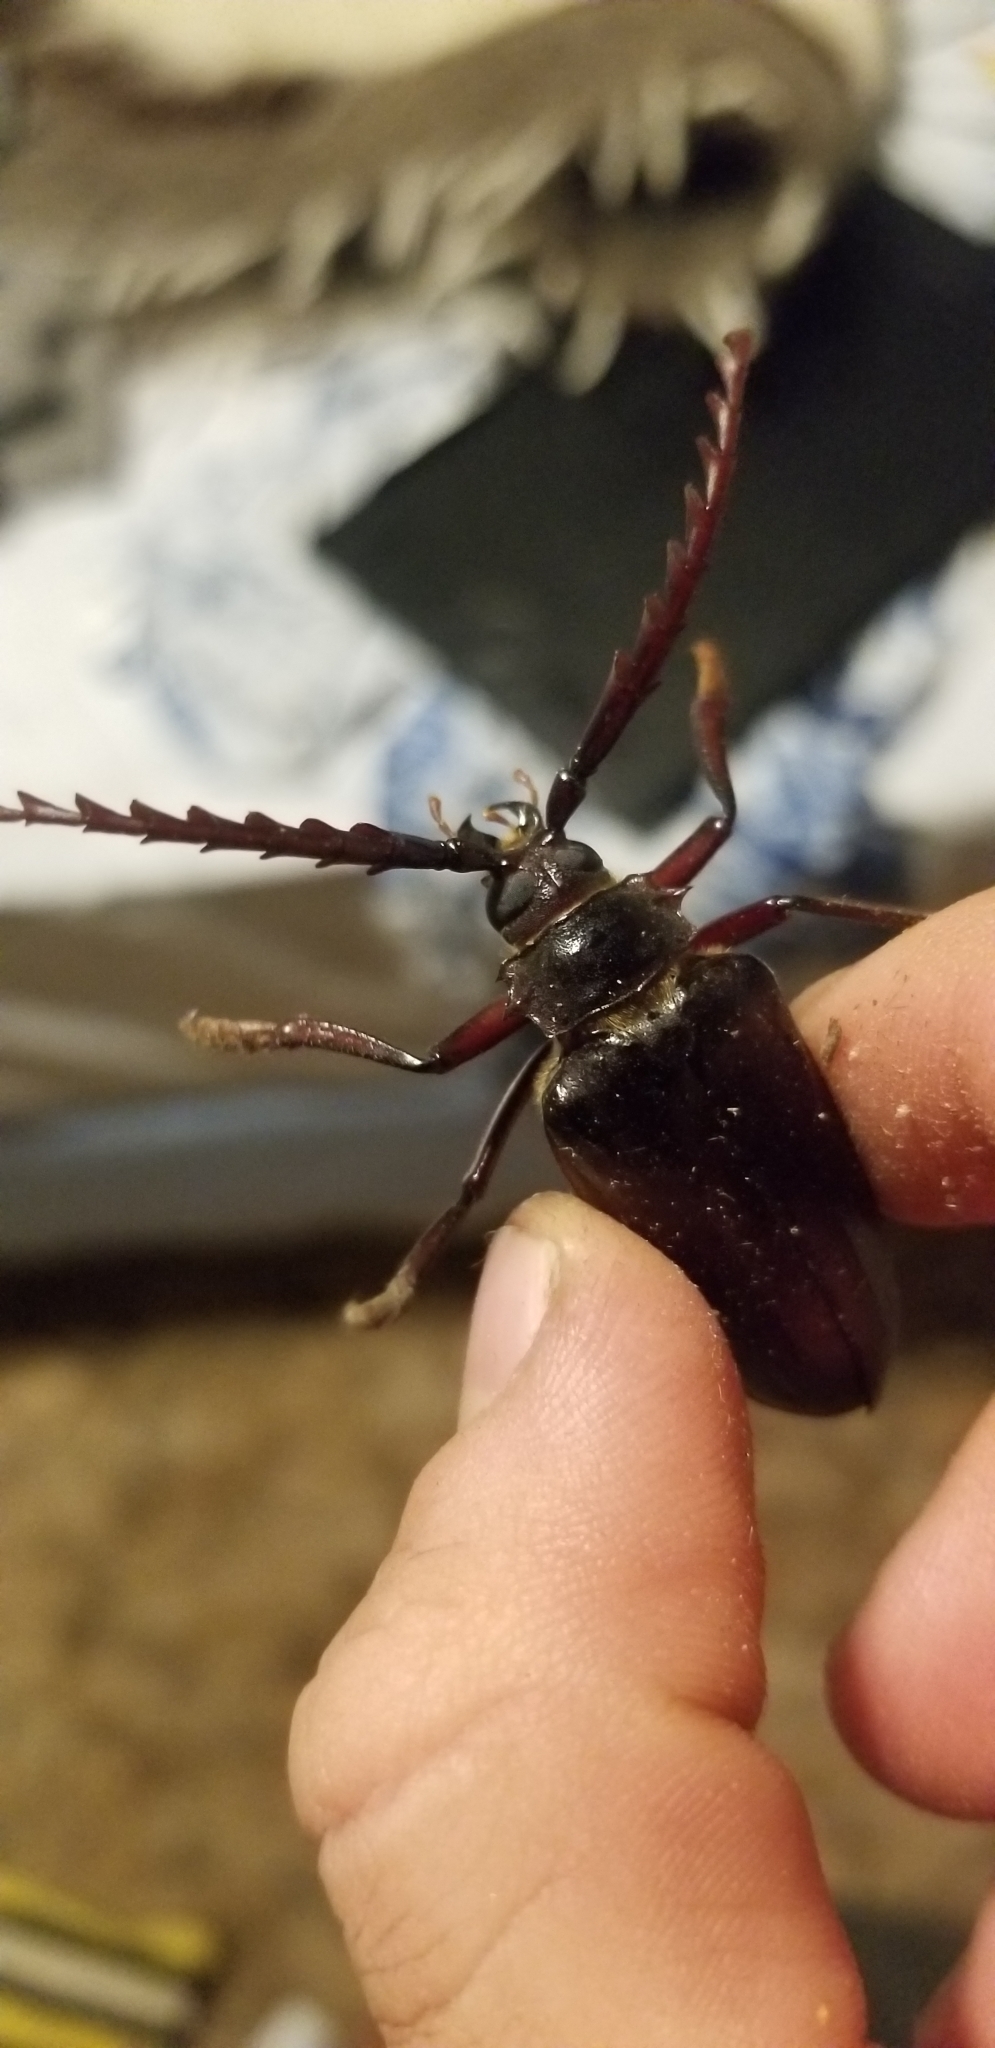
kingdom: Animalia
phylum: Arthropoda
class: Insecta
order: Coleoptera
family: Cerambycidae
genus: Prionus
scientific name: Prionus californicus
